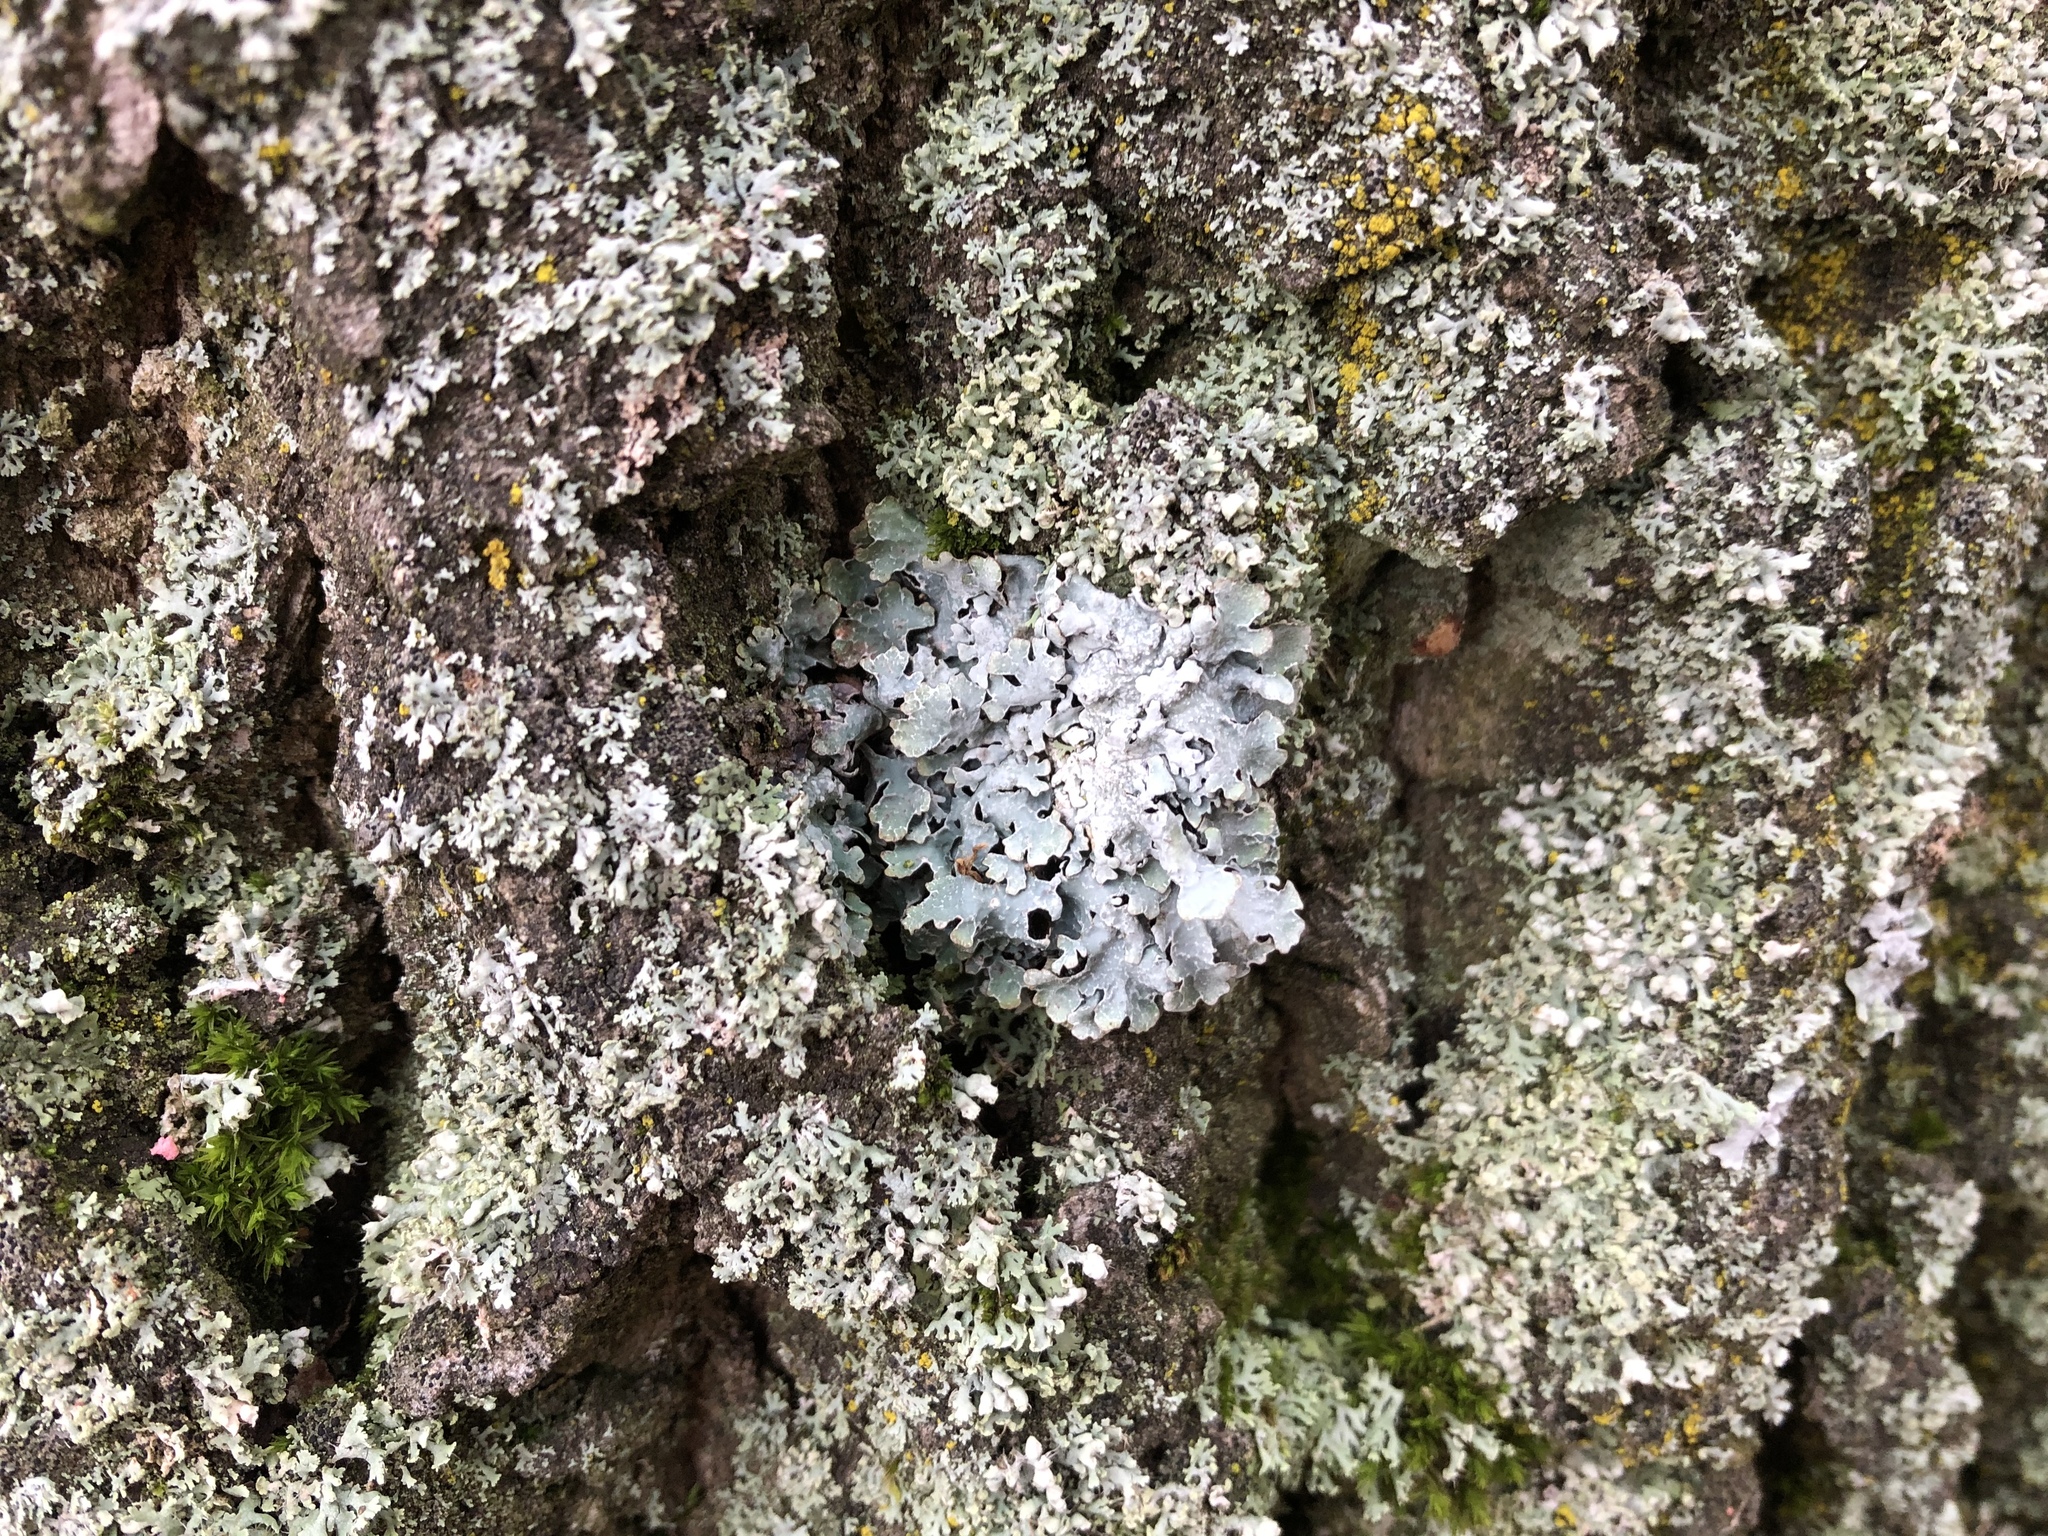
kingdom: Fungi
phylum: Ascomycota
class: Lecanoromycetes
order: Lecanorales
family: Parmeliaceae
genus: Parmelia
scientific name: Parmelia sulcata
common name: Netted shield lichen
